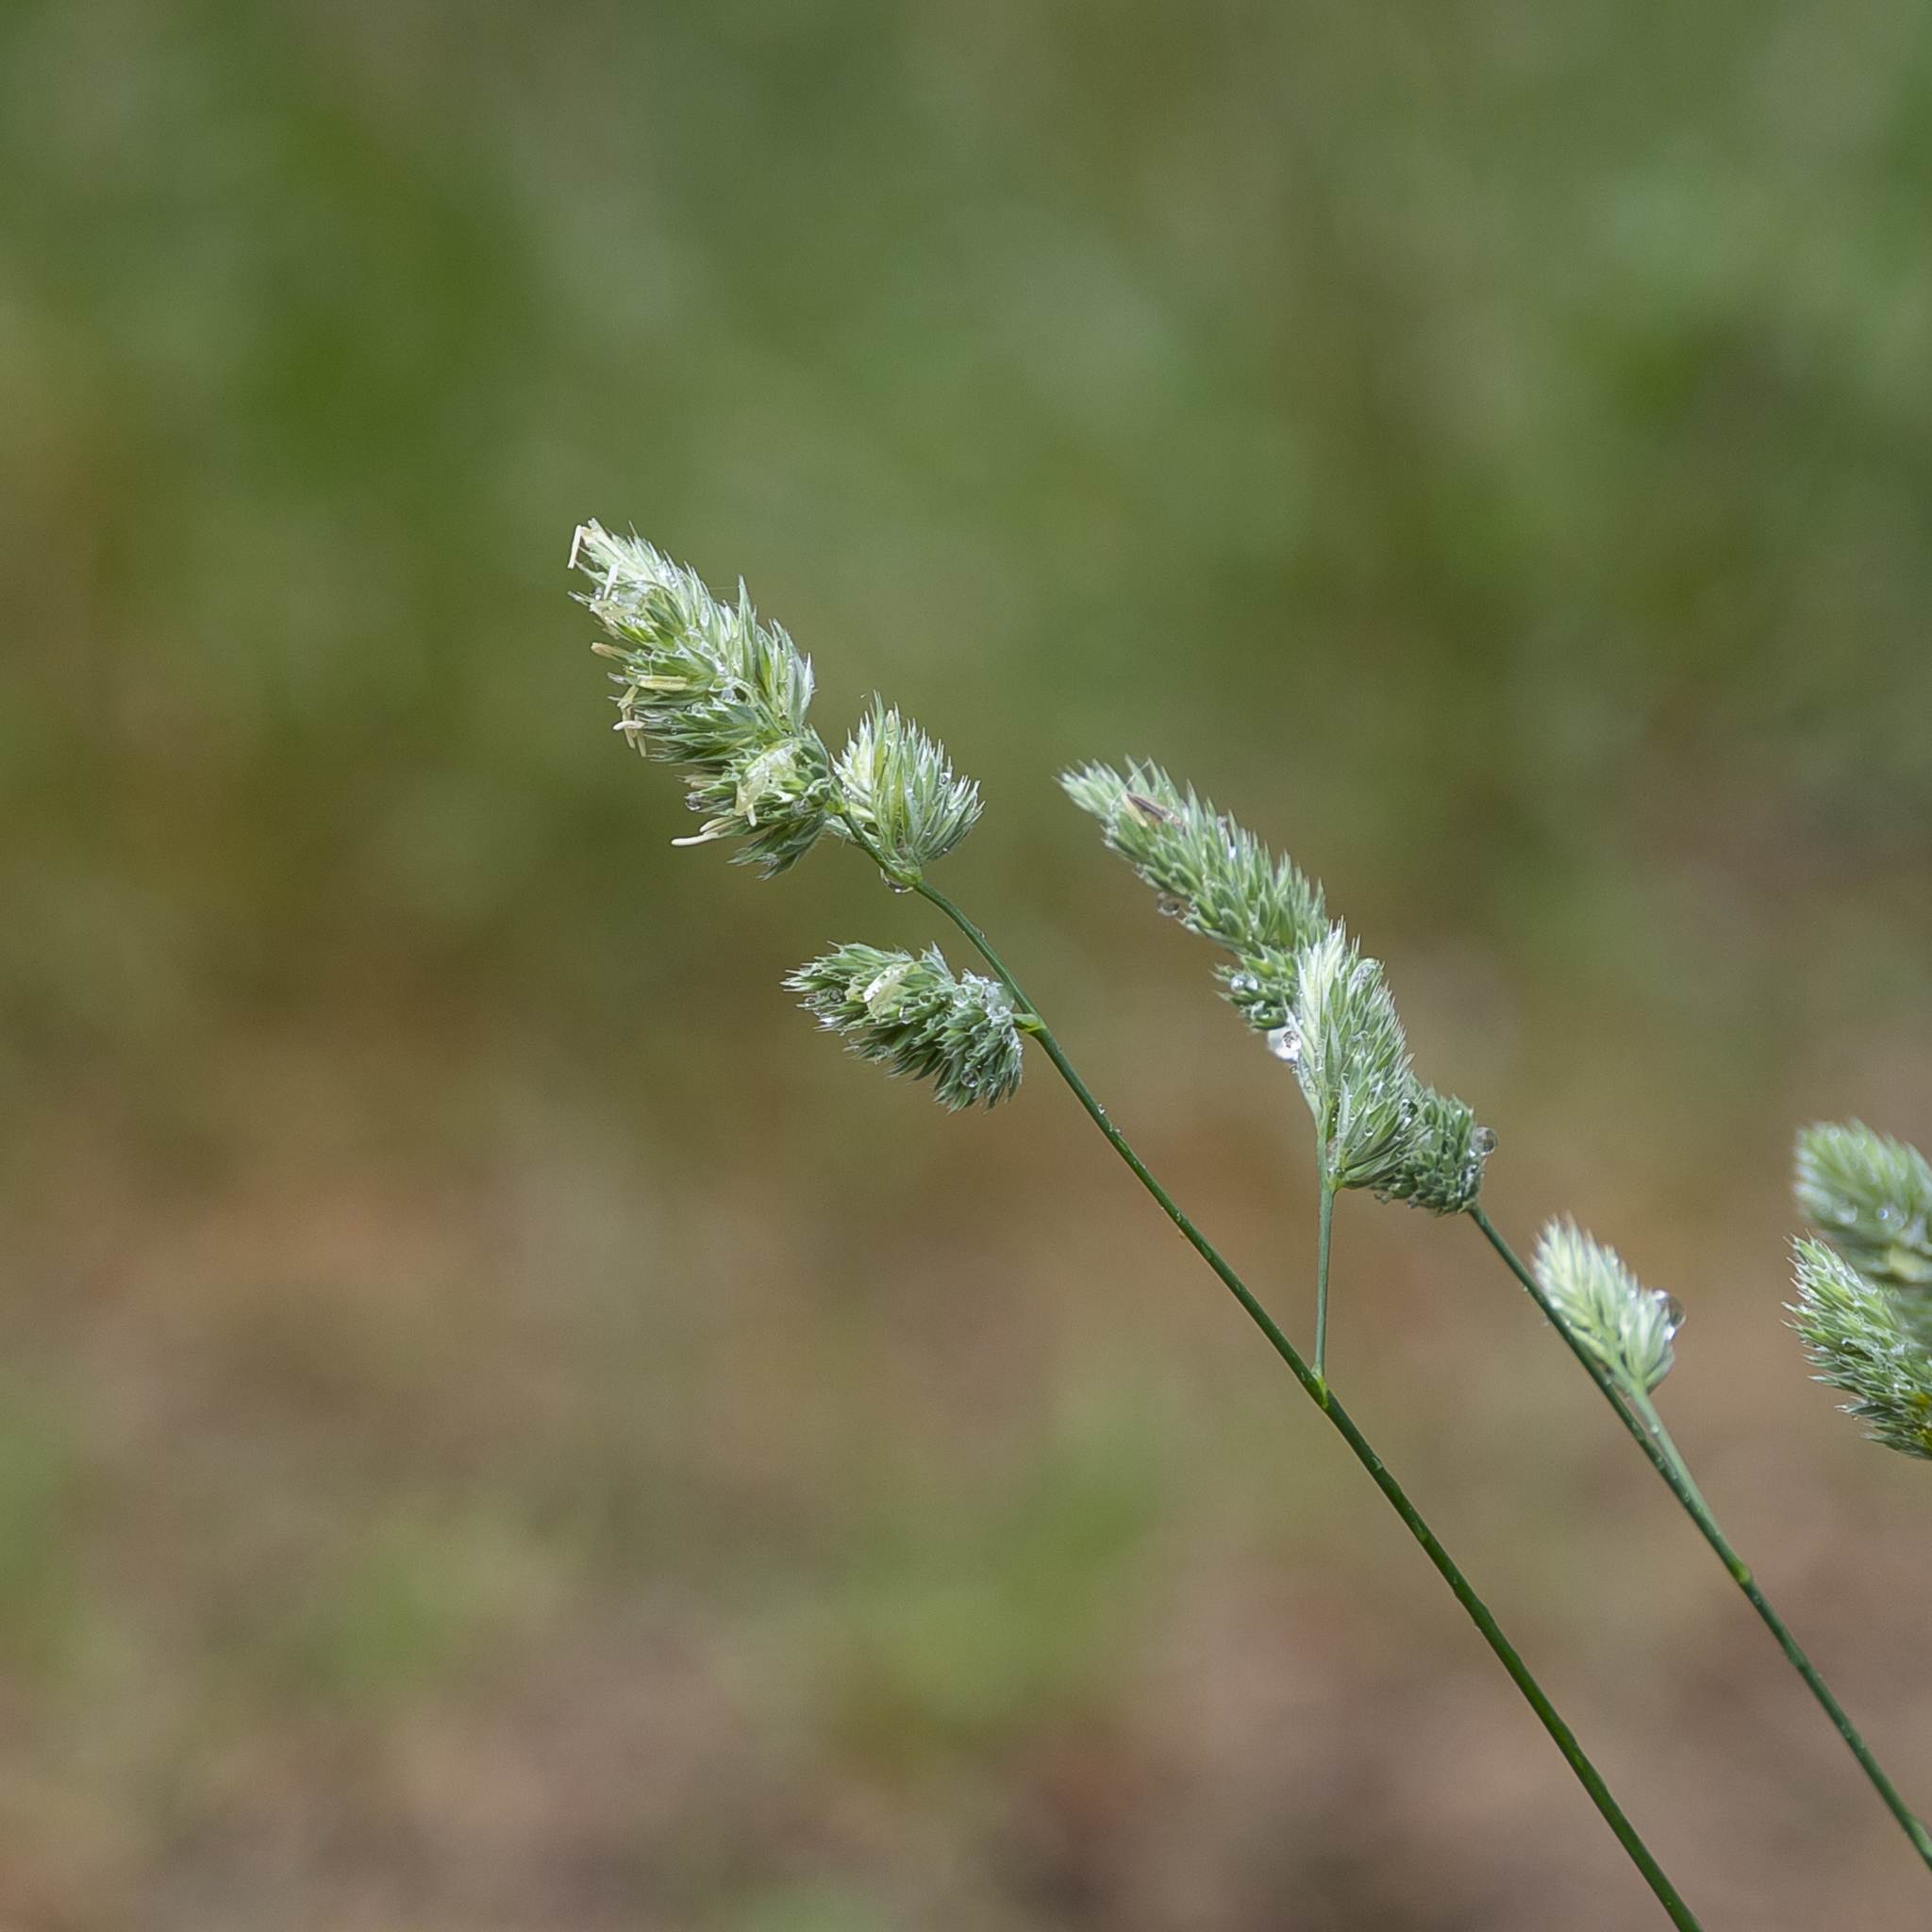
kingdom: Plantae
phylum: Tracheophyta
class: Liliopsida
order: Poales
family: Poaceae
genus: Dactylis
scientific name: Dactylis glomerata
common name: Orchardgrass
